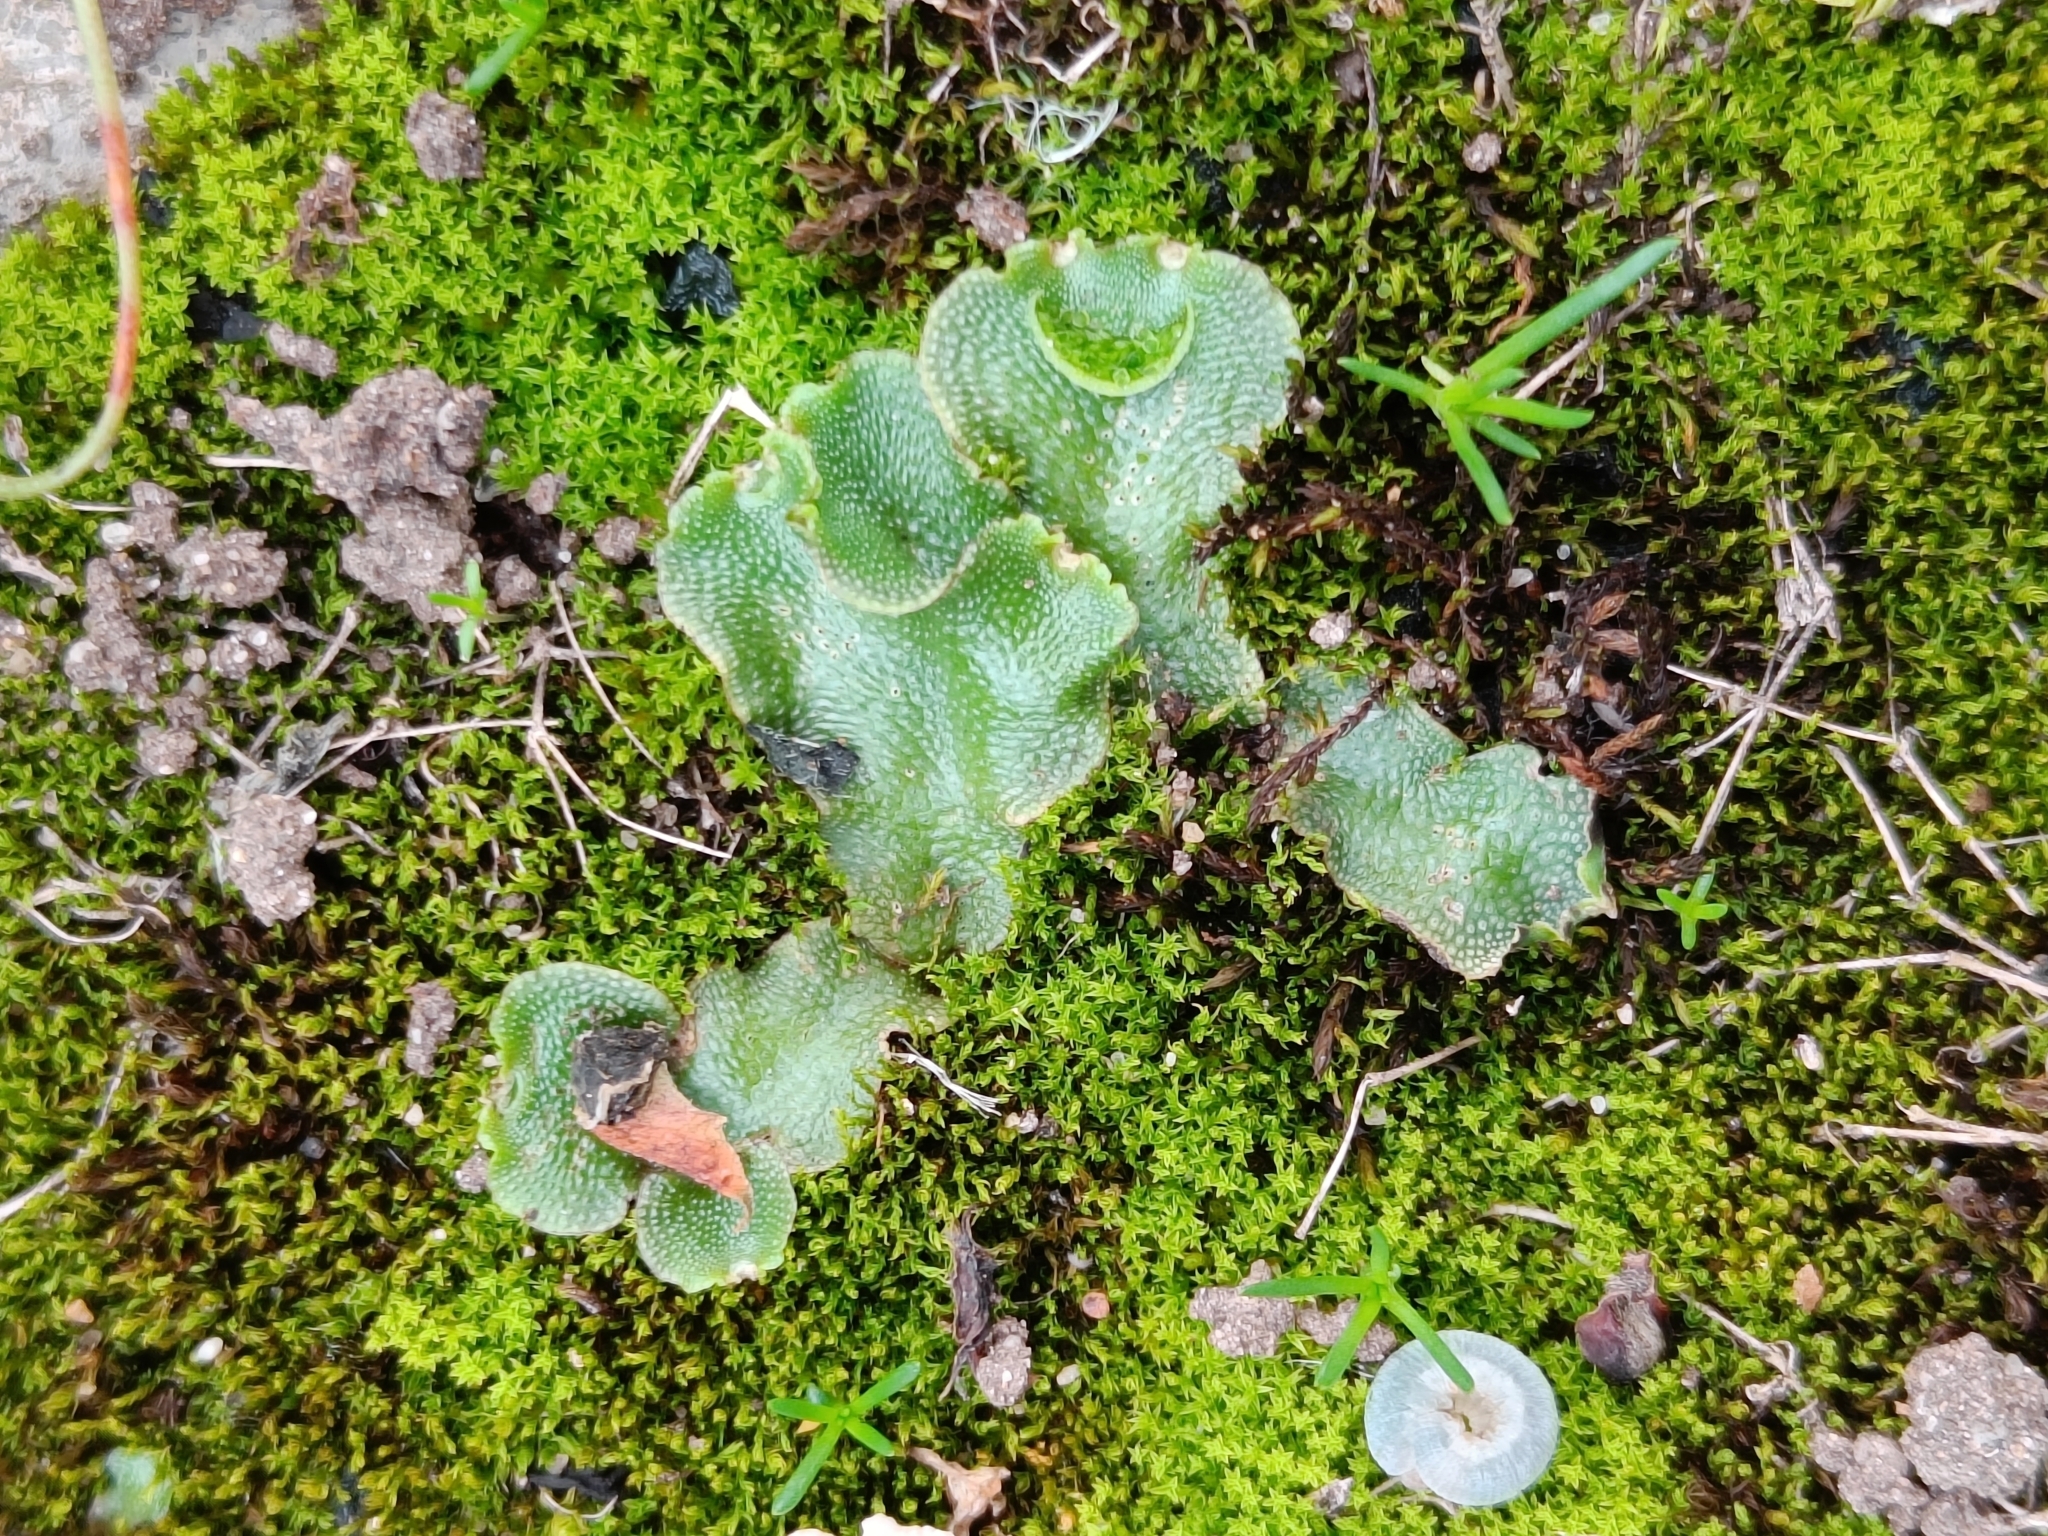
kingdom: Plantae
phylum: Marchantiophyta
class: Marchantiopsida
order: Lunulariales
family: Lunulariaceae
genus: Lunularia
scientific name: Lunularia cruciata
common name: Crescent-cup liverwort
